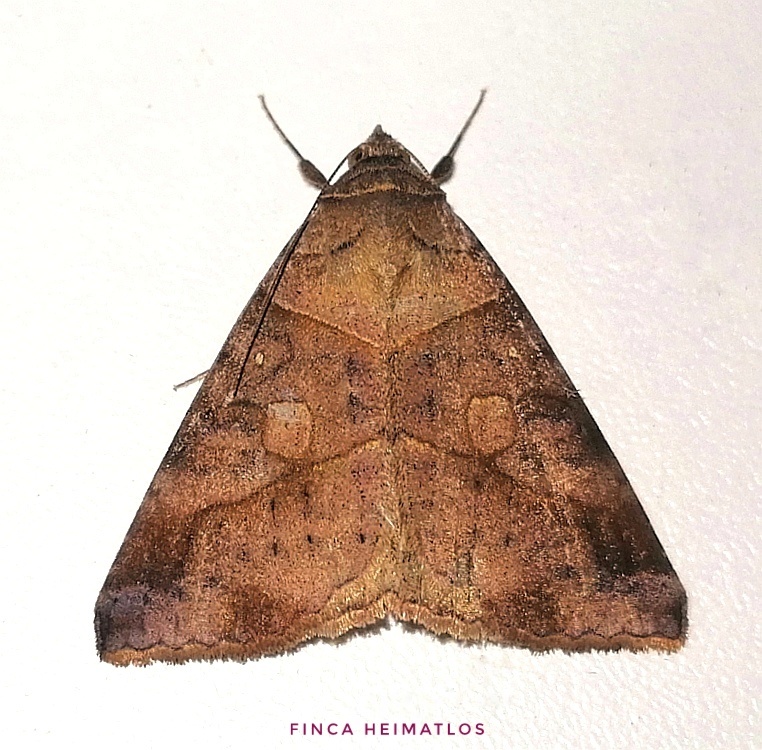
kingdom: Animalia
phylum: Arthropoda
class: Insecta
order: Lepidoptera
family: Erebidae
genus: Mocis
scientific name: Mocis diffluens
